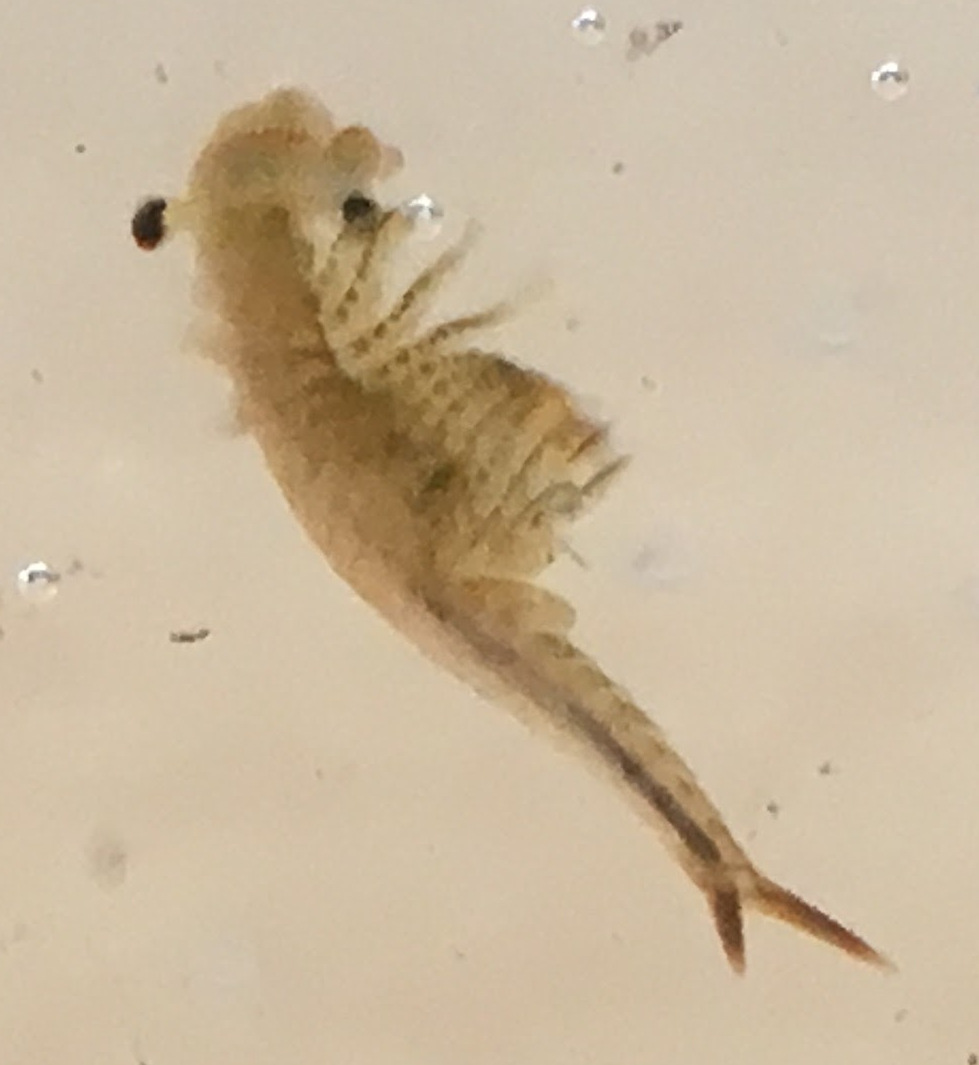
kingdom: Animalia
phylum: Arthropoda
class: Branchiopoda
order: Anostraca
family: Chirocephalidae
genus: Chirocephalus
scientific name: Chirocephalus diaphanus
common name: Fairy shrimp
